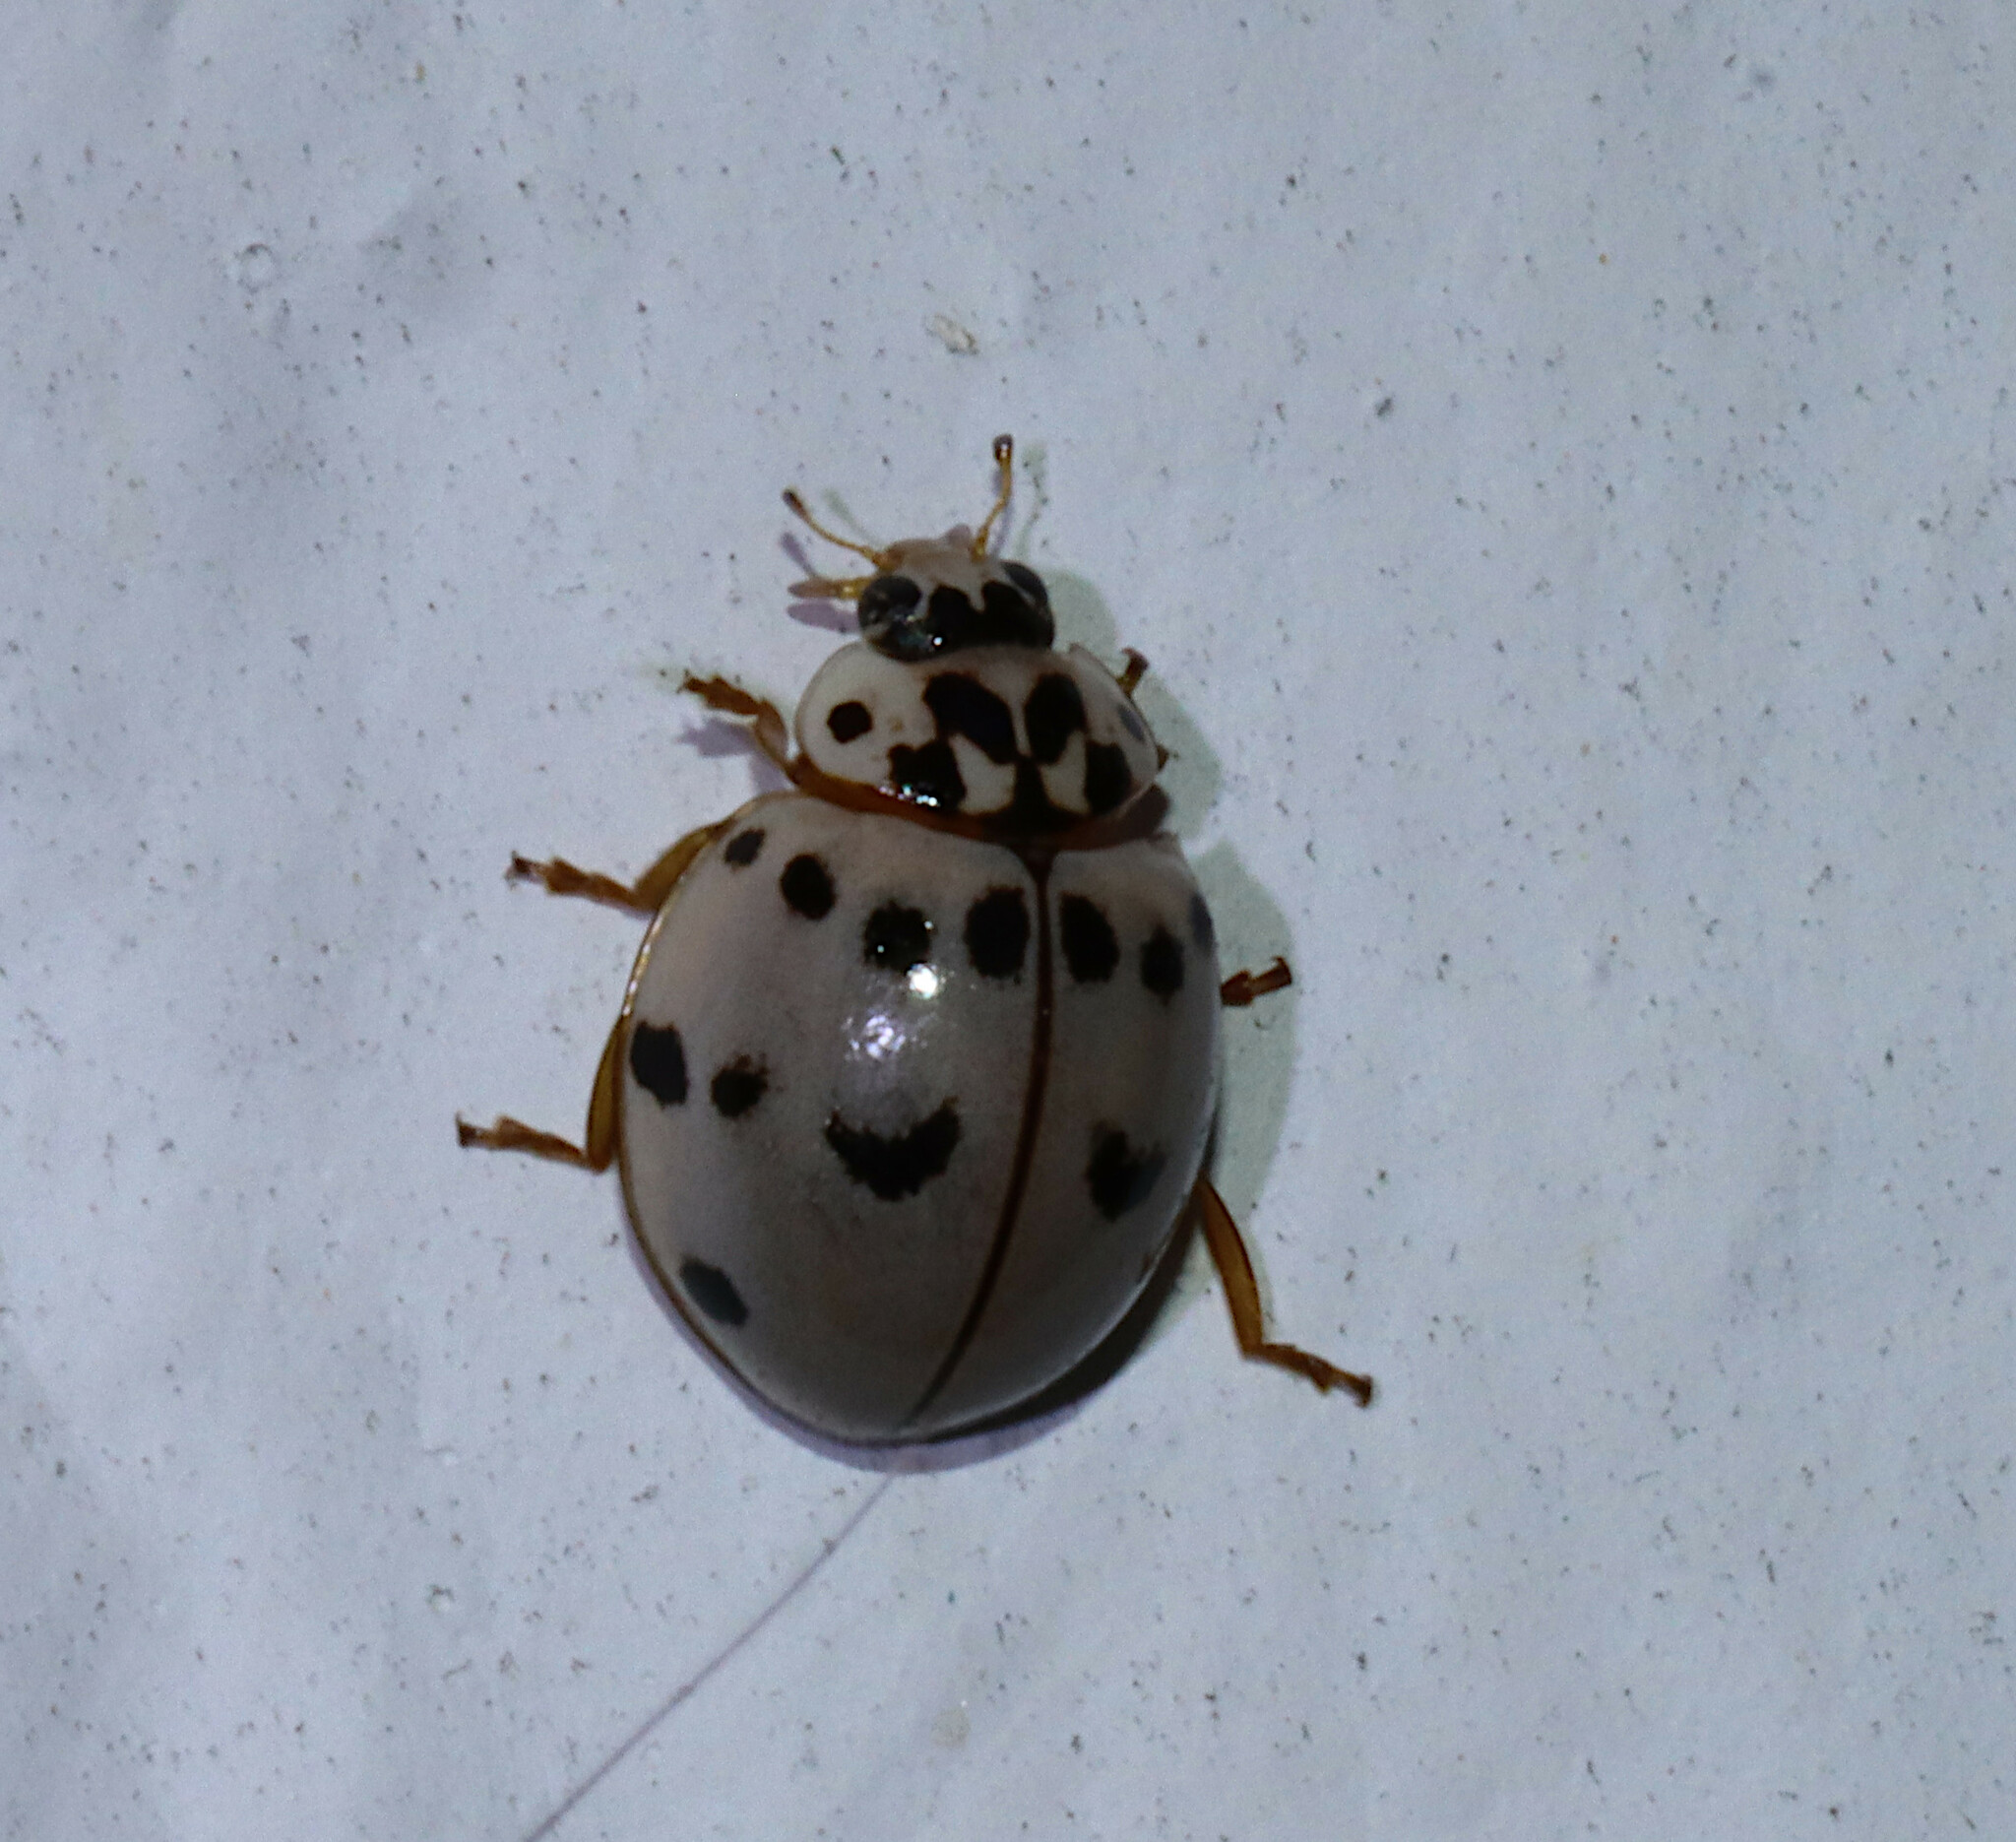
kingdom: Animalia
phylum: Arthropoda
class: Insecta
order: Coleoptera
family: Coccinellidae
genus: Olla
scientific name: Olla v-nigrum
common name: Ashy gray lady beetle
